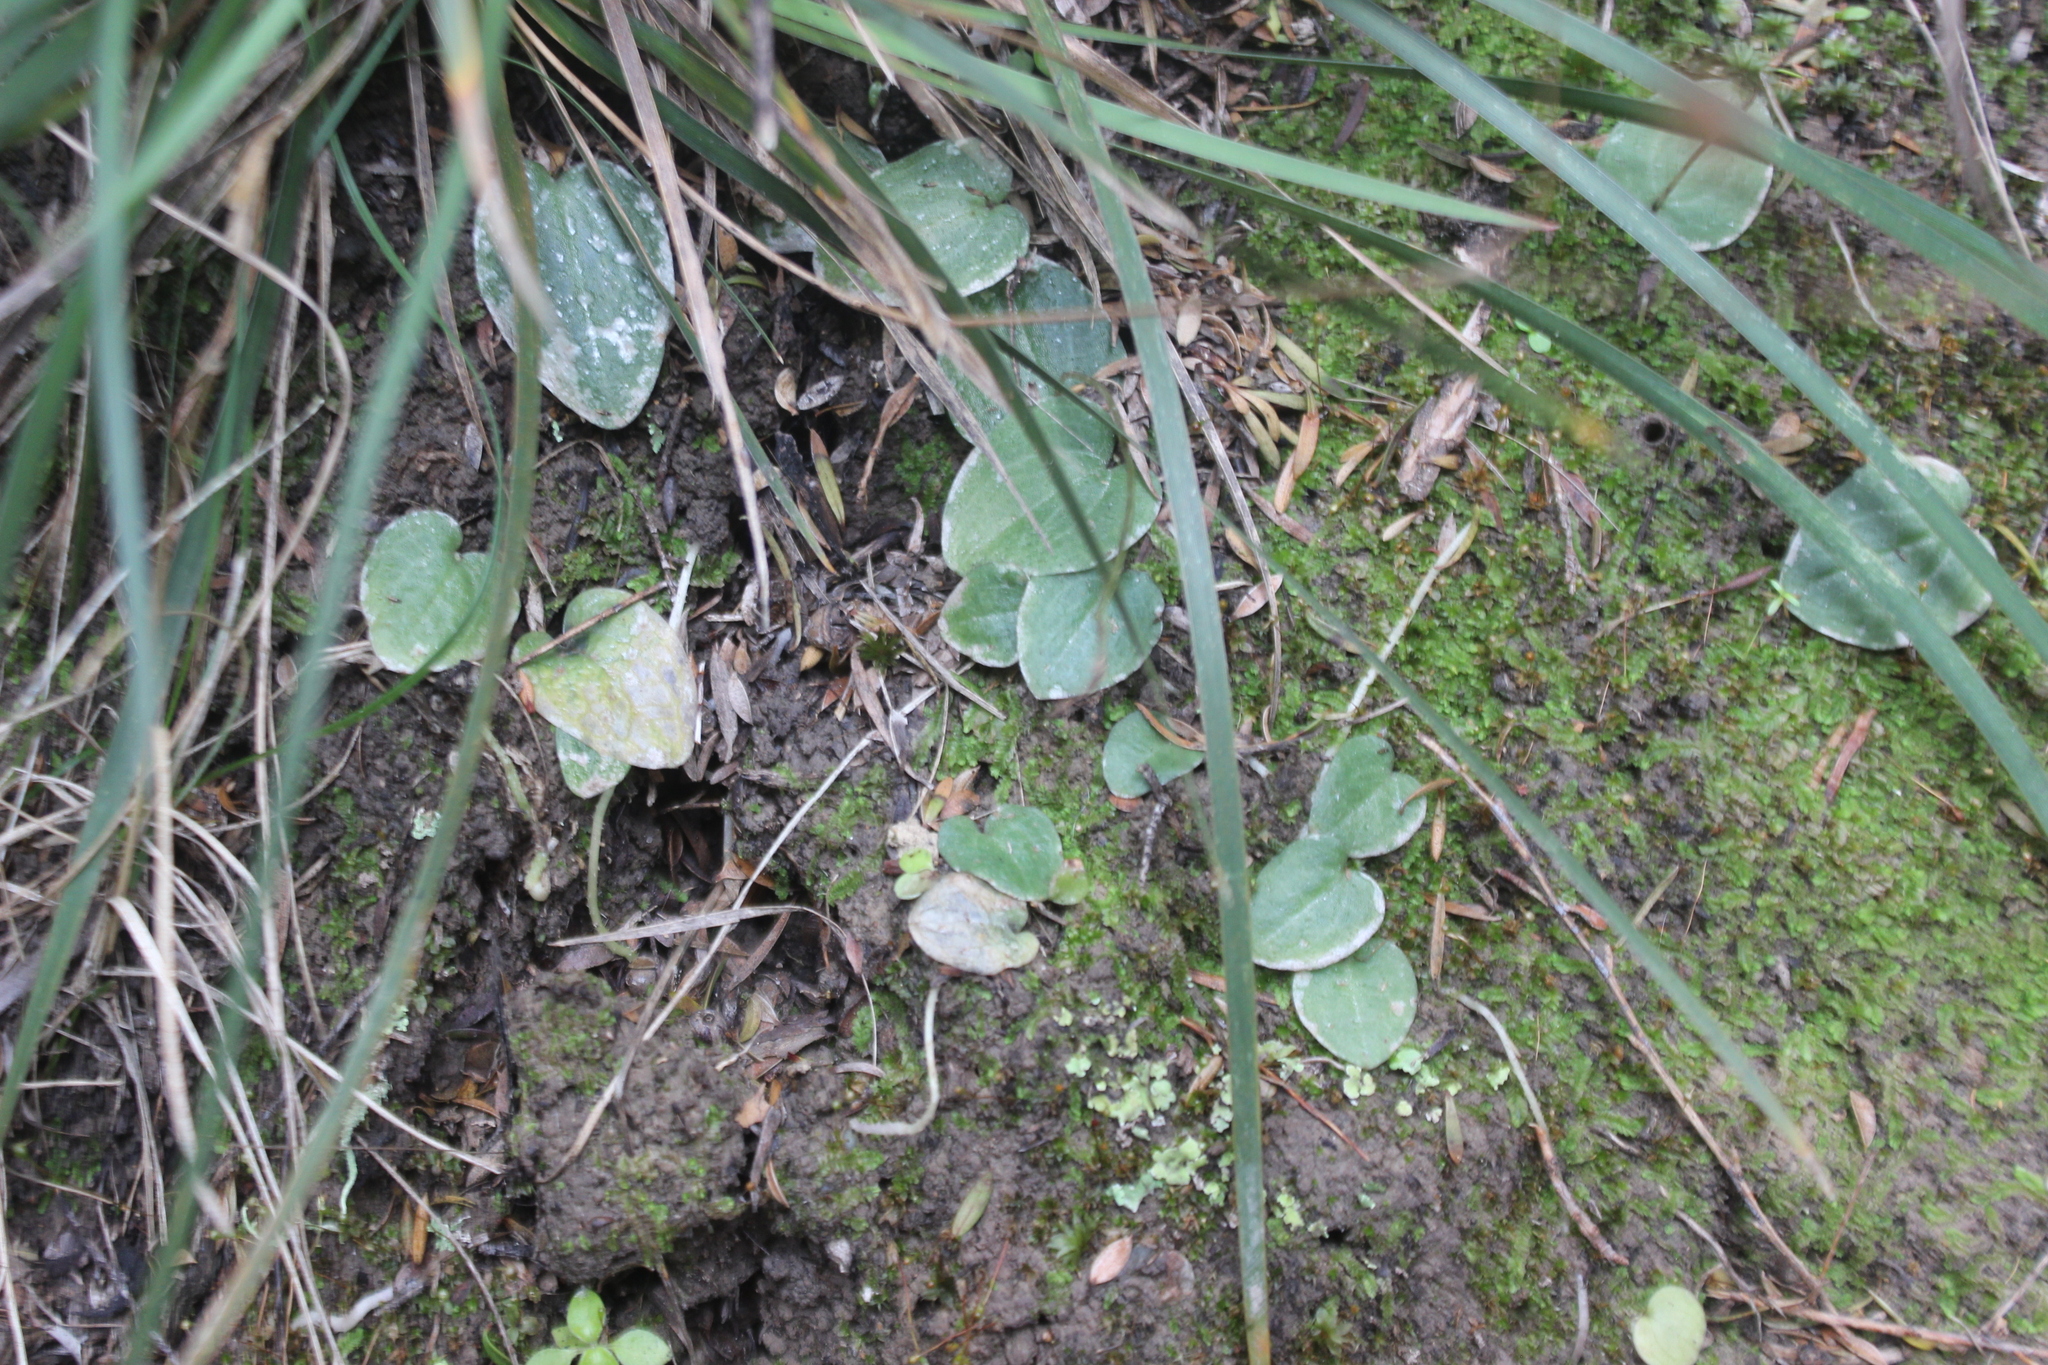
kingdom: Plantae
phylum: Tracheophyta
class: Liliopsida
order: Asparagales
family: Orchidaceae
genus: Cyrtostylis
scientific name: Cyrtostylis rotundifolia
